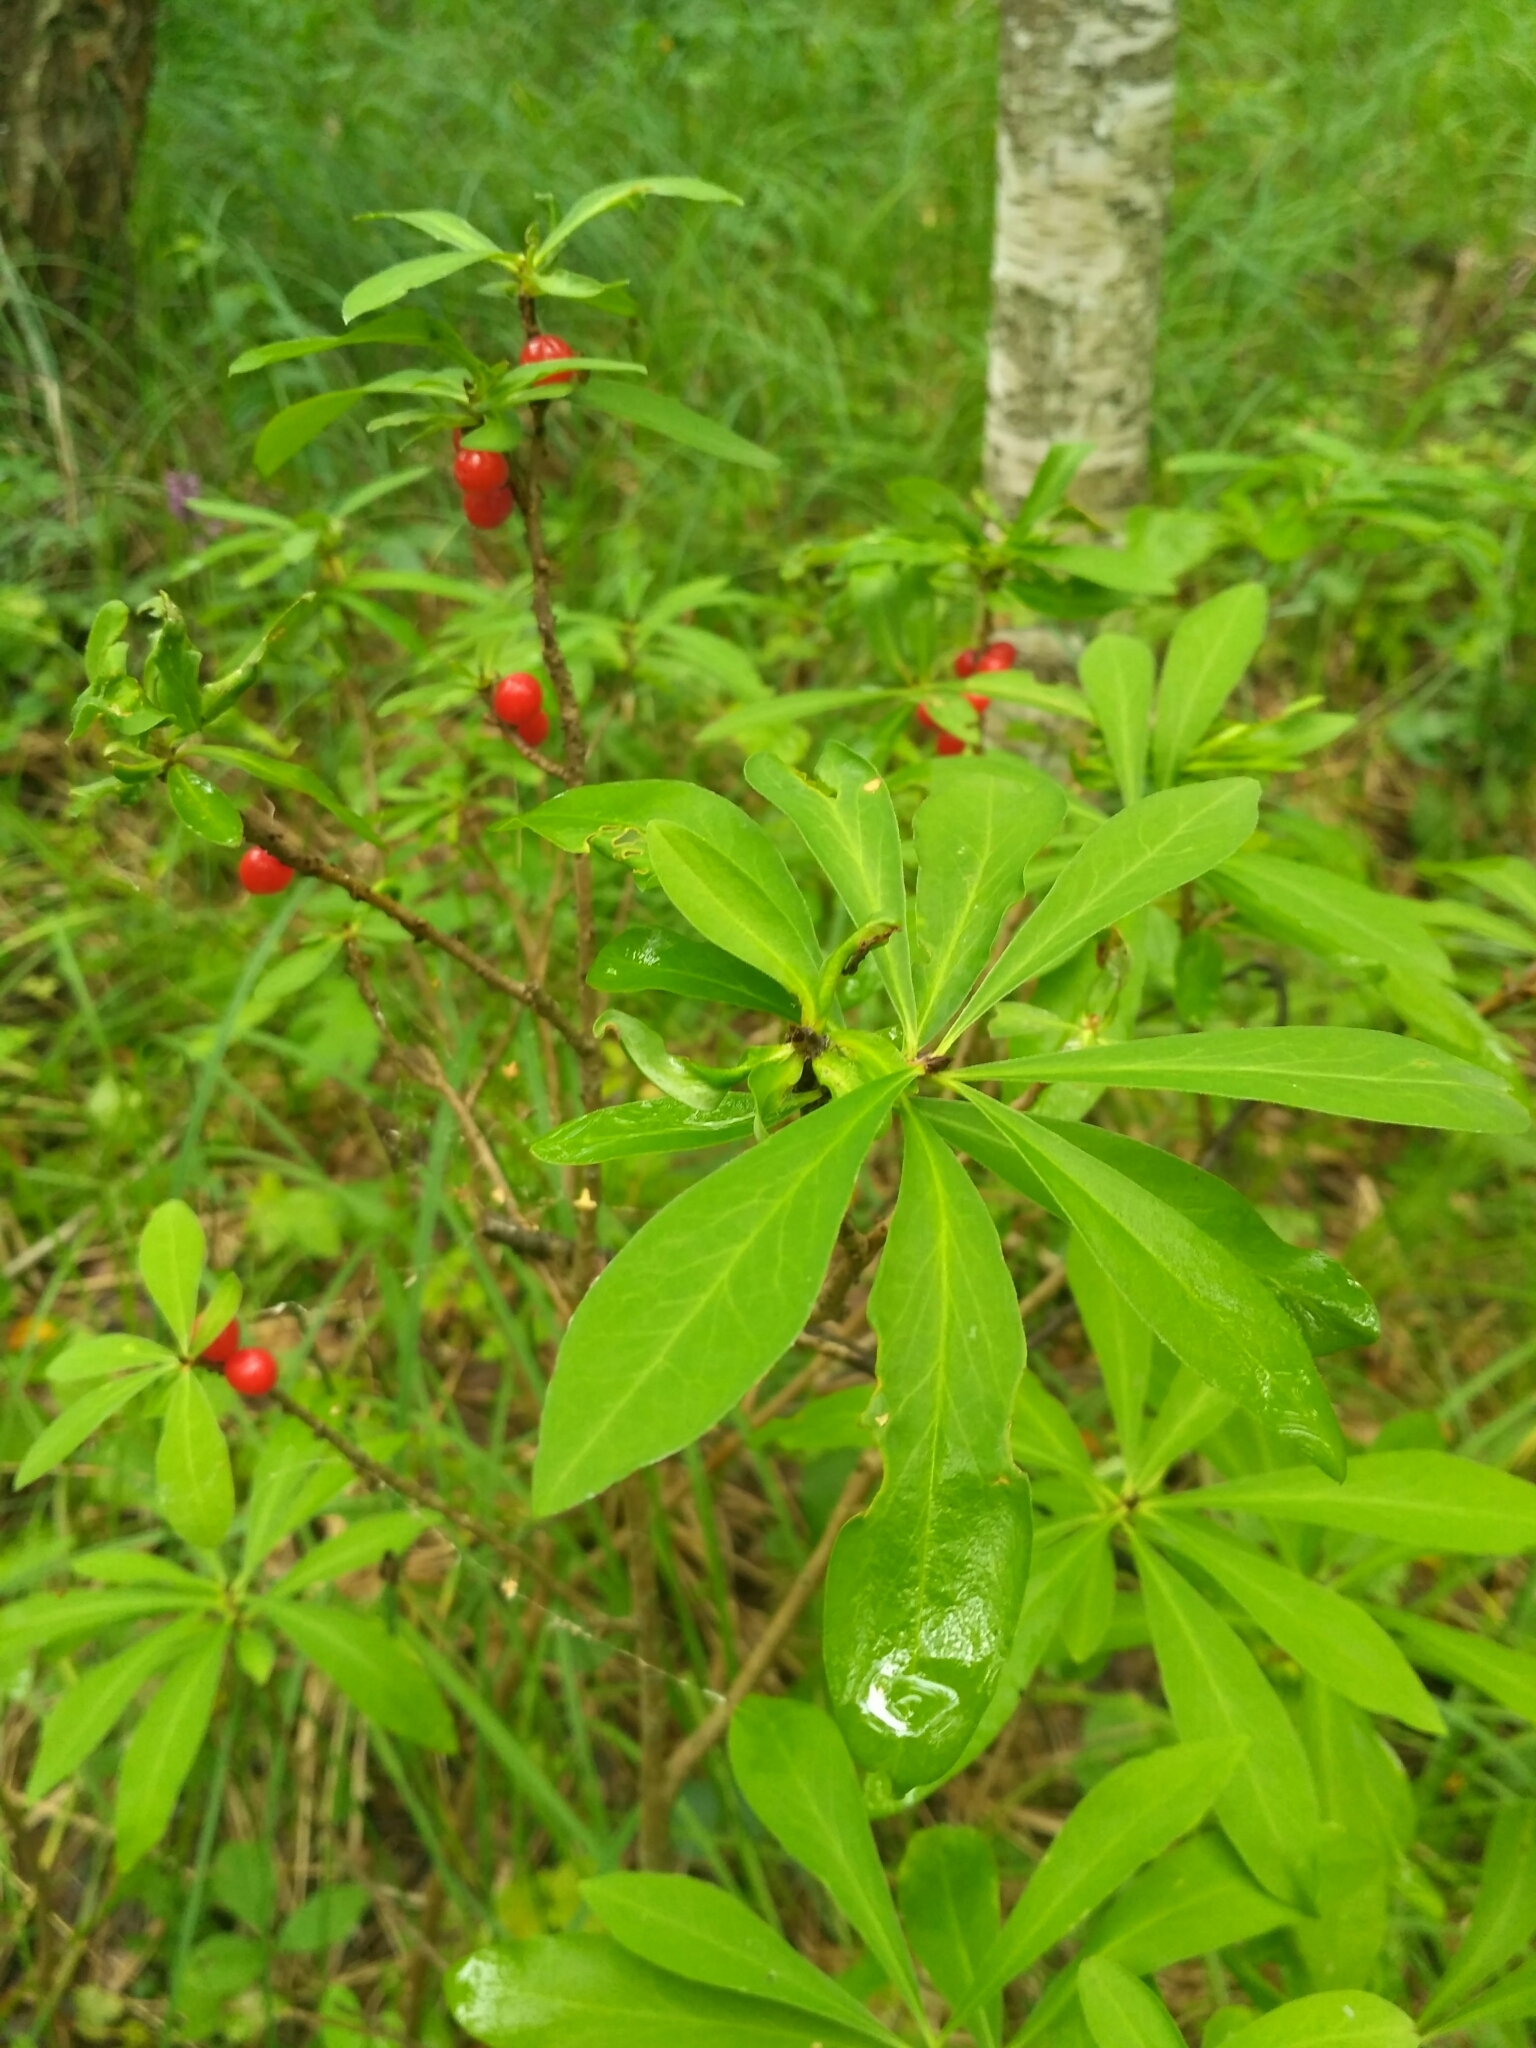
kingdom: Plantae
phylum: Tracheophyta
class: Magnoliopsida
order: Malvales
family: Thymelaeaceae
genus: Daphne
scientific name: Daphne mezereum
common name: Mezereon
